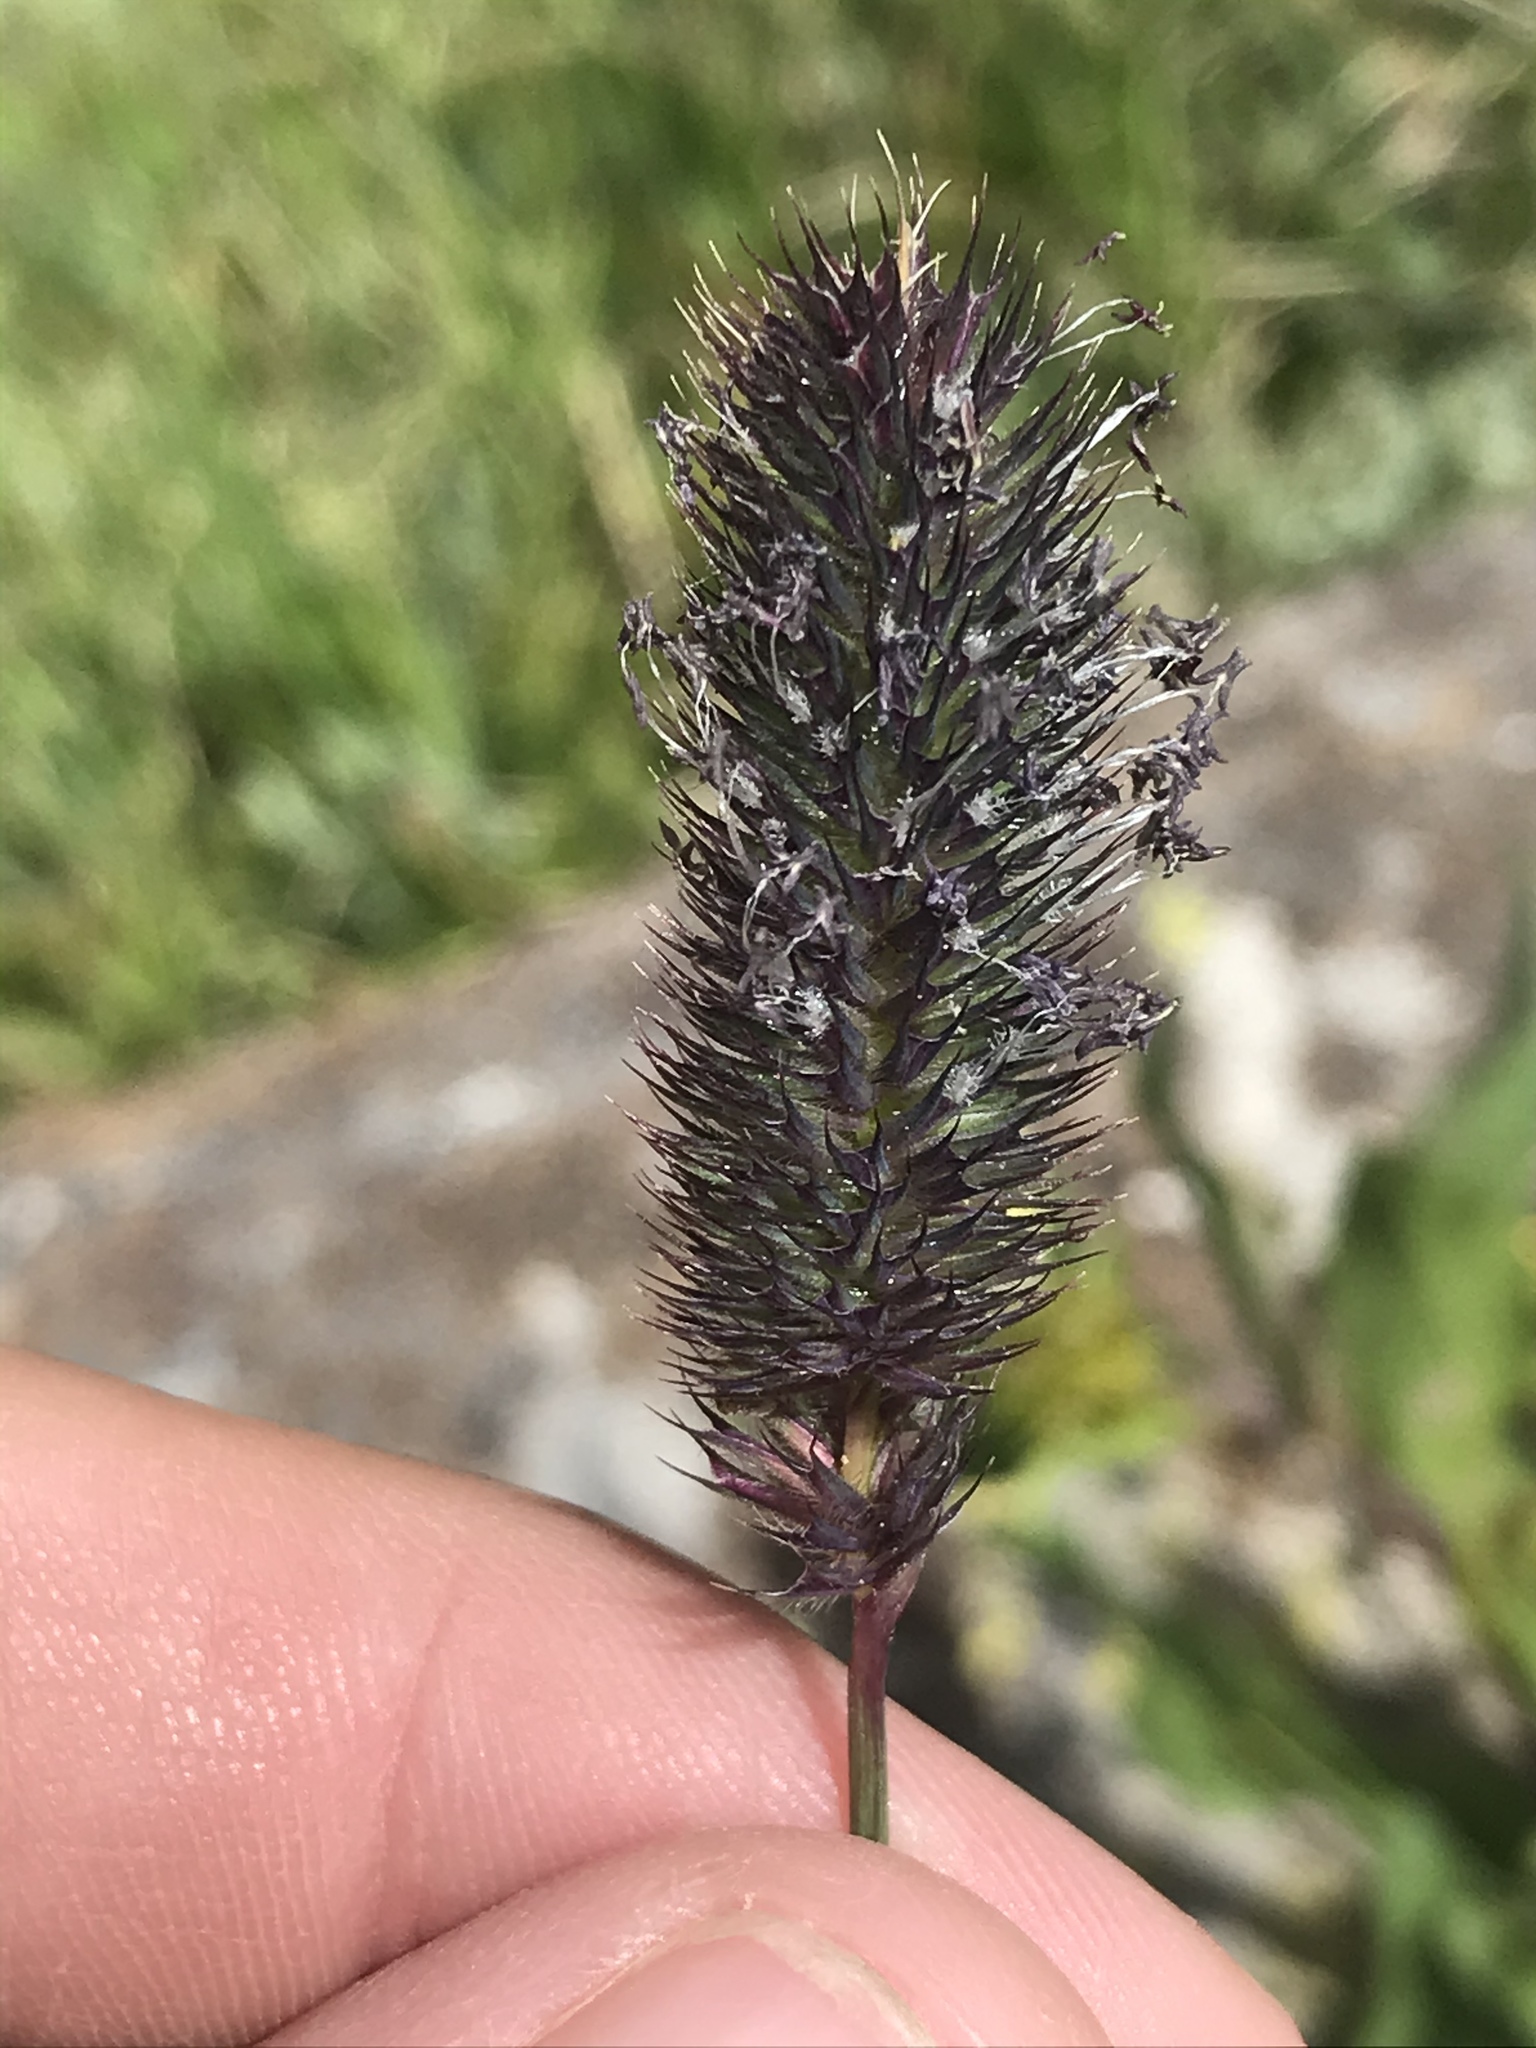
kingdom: Plantae
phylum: Tracheophyta
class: Liliopsida
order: Poales
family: Poaceae
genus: Phleum
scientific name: Phleum alpinum
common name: Alpine cat's-tail
